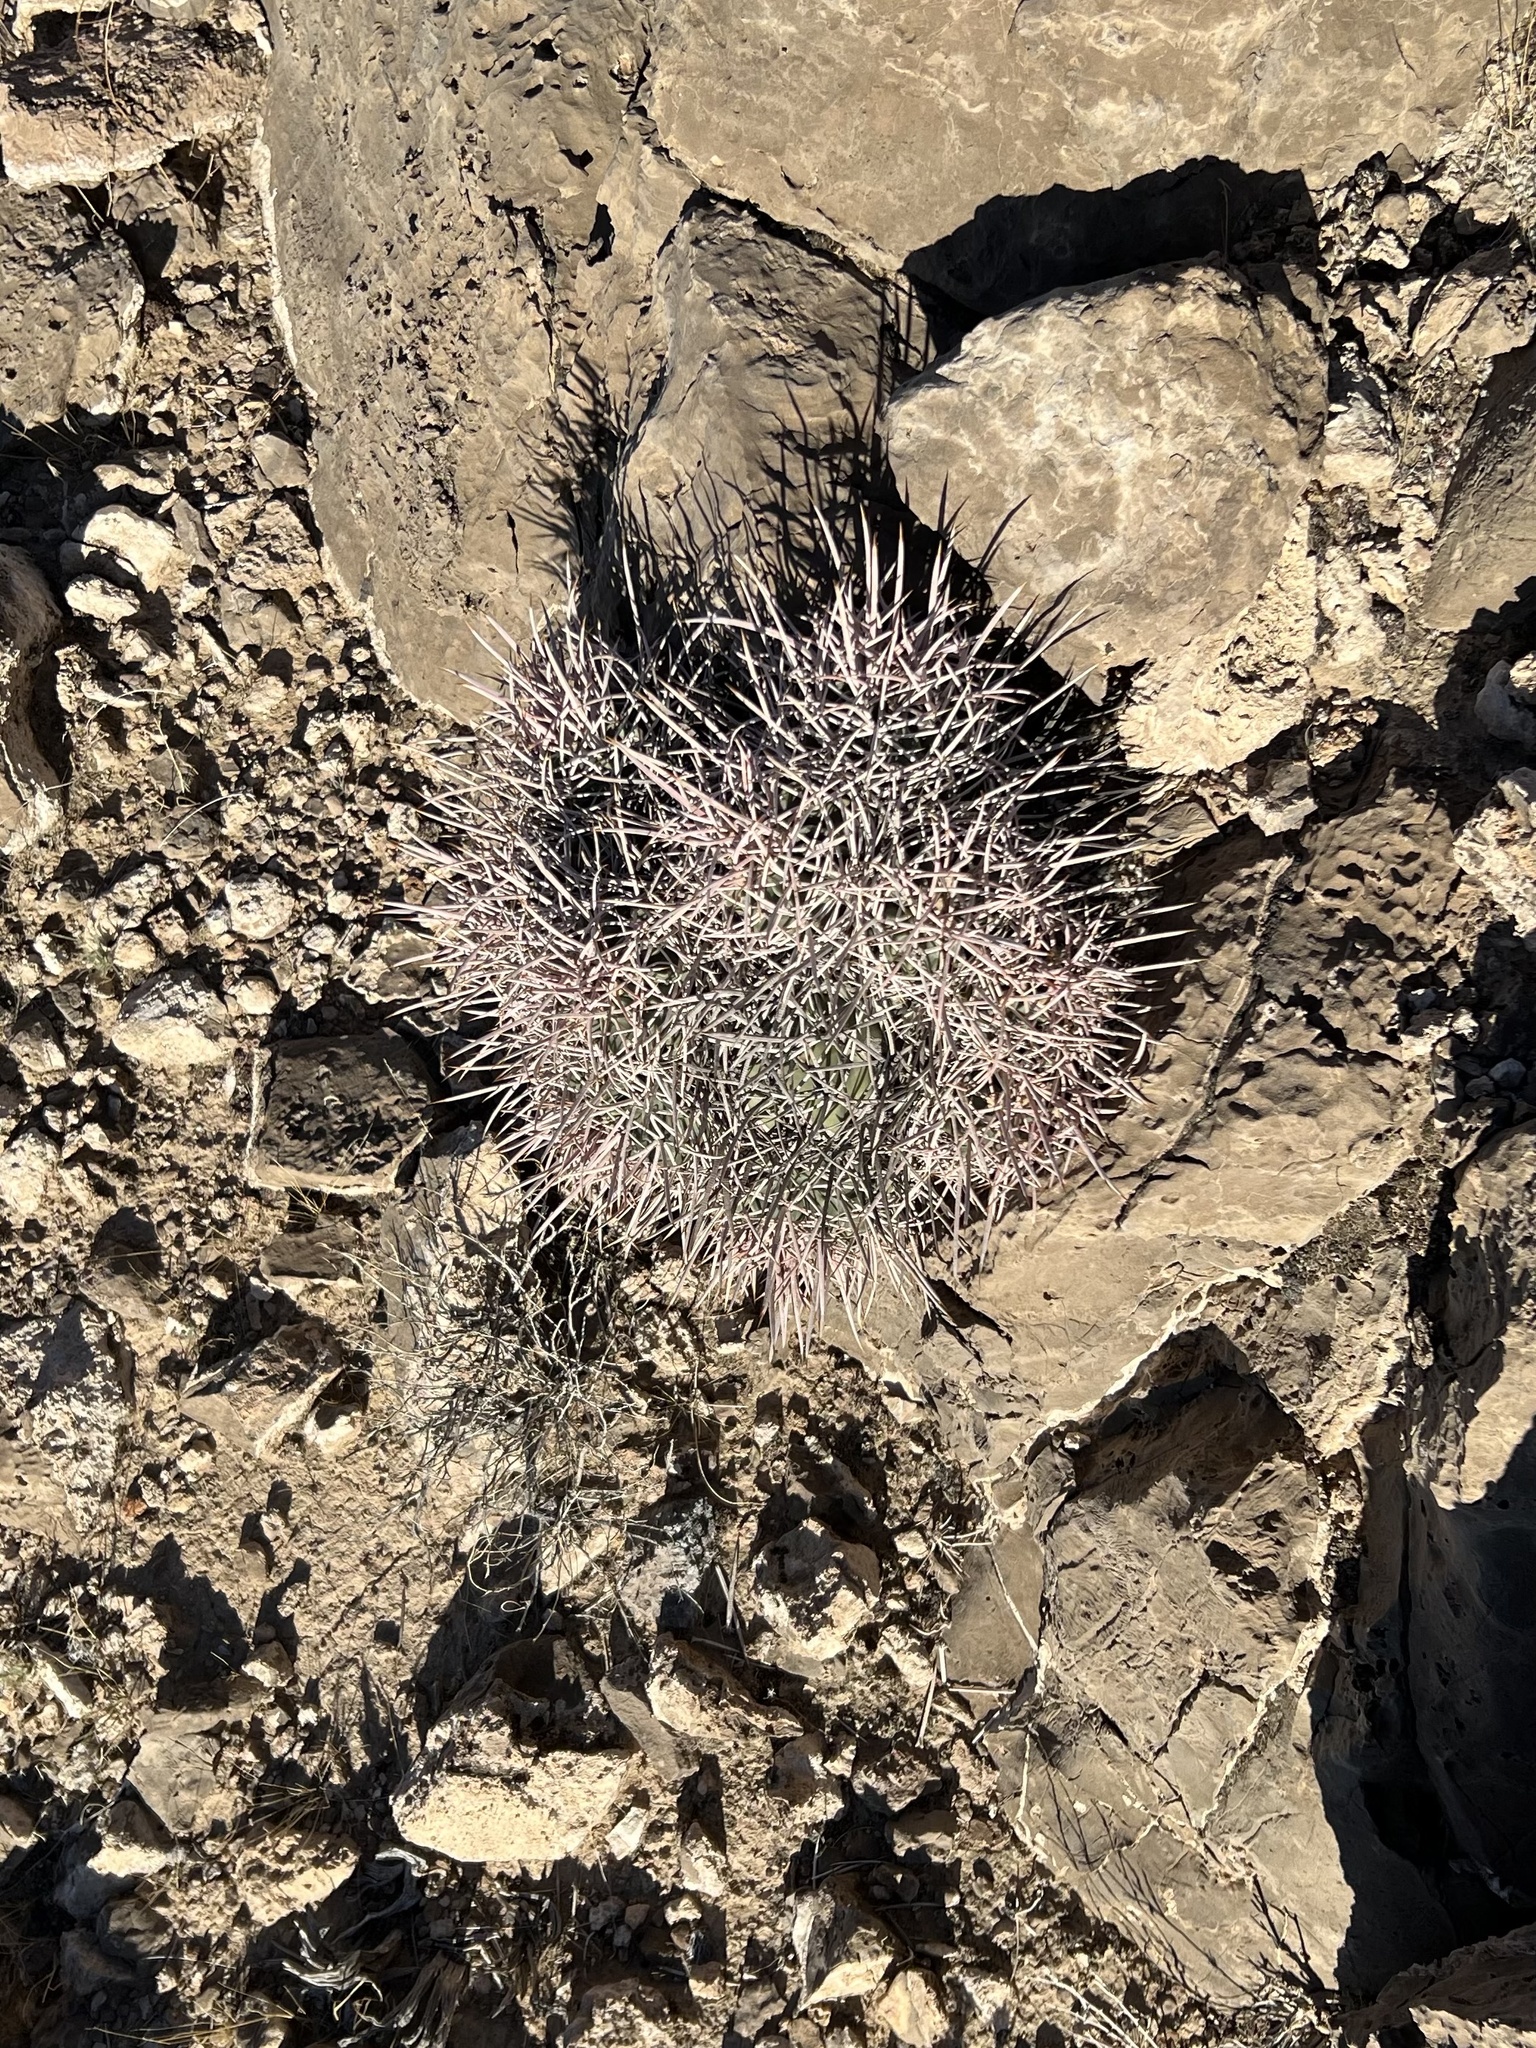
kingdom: Plantae
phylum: Tracheophyta
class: Magnoliopsida
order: Caryophyllales
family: Cactaceae
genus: Echinocactus
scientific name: Echinocactus polycephalus
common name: Cottontop cactus
